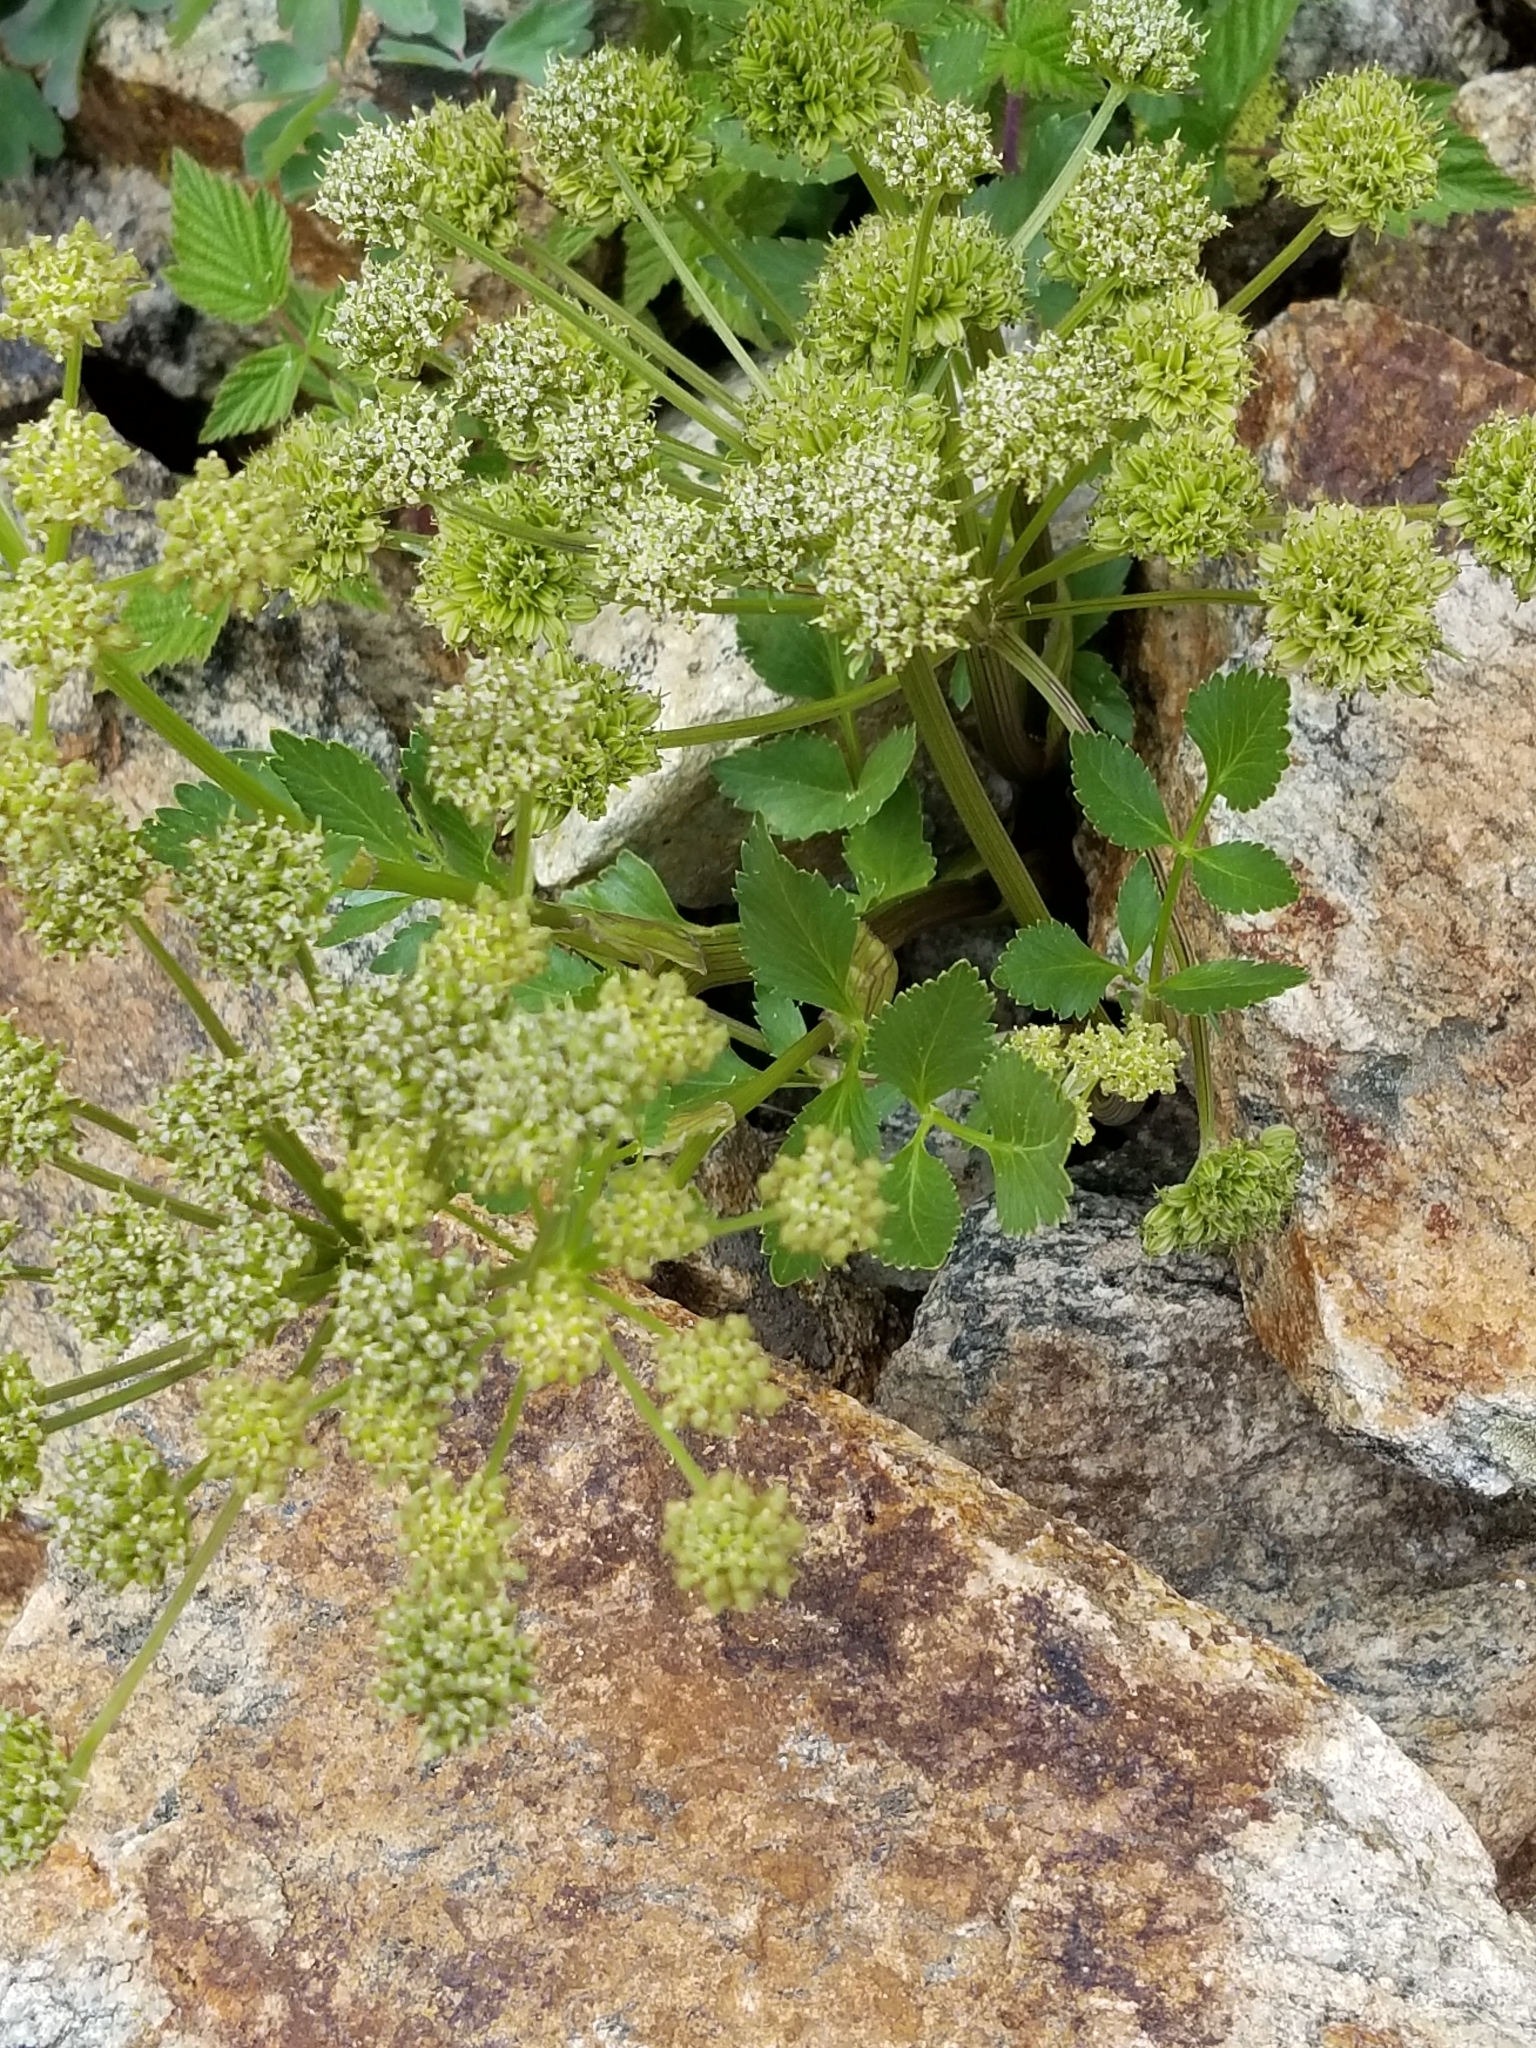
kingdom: Plantae
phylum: Tracheophyta
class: Magnoliopsida
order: Apiales
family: Apiaceae
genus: Angelica
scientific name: Angelica grayi
